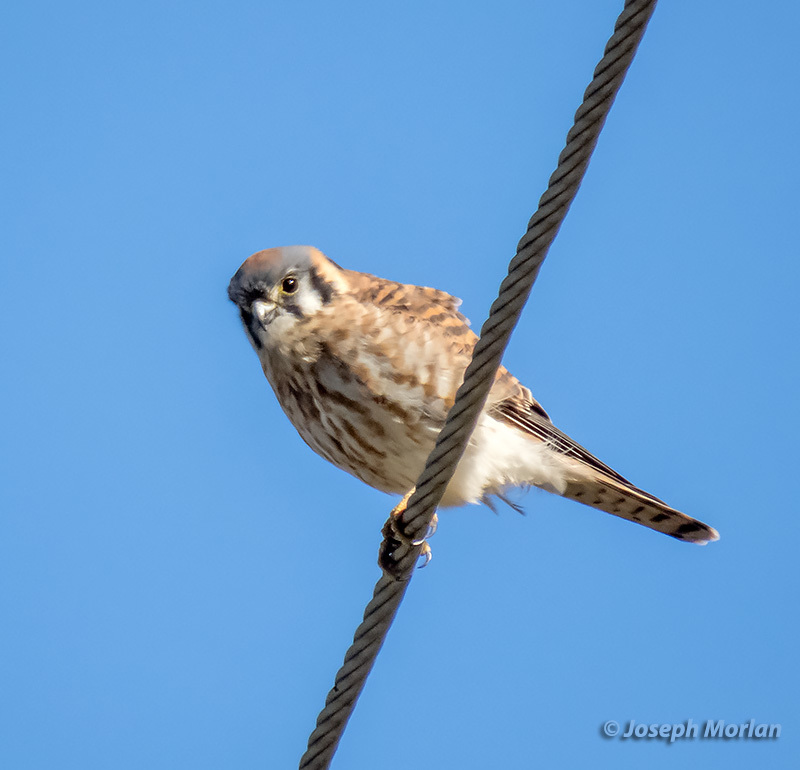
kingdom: Animalia
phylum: Chordata
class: Aves
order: Falconiformes
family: Falconidae
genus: Falco
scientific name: Falco sparverius
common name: American kestrel
